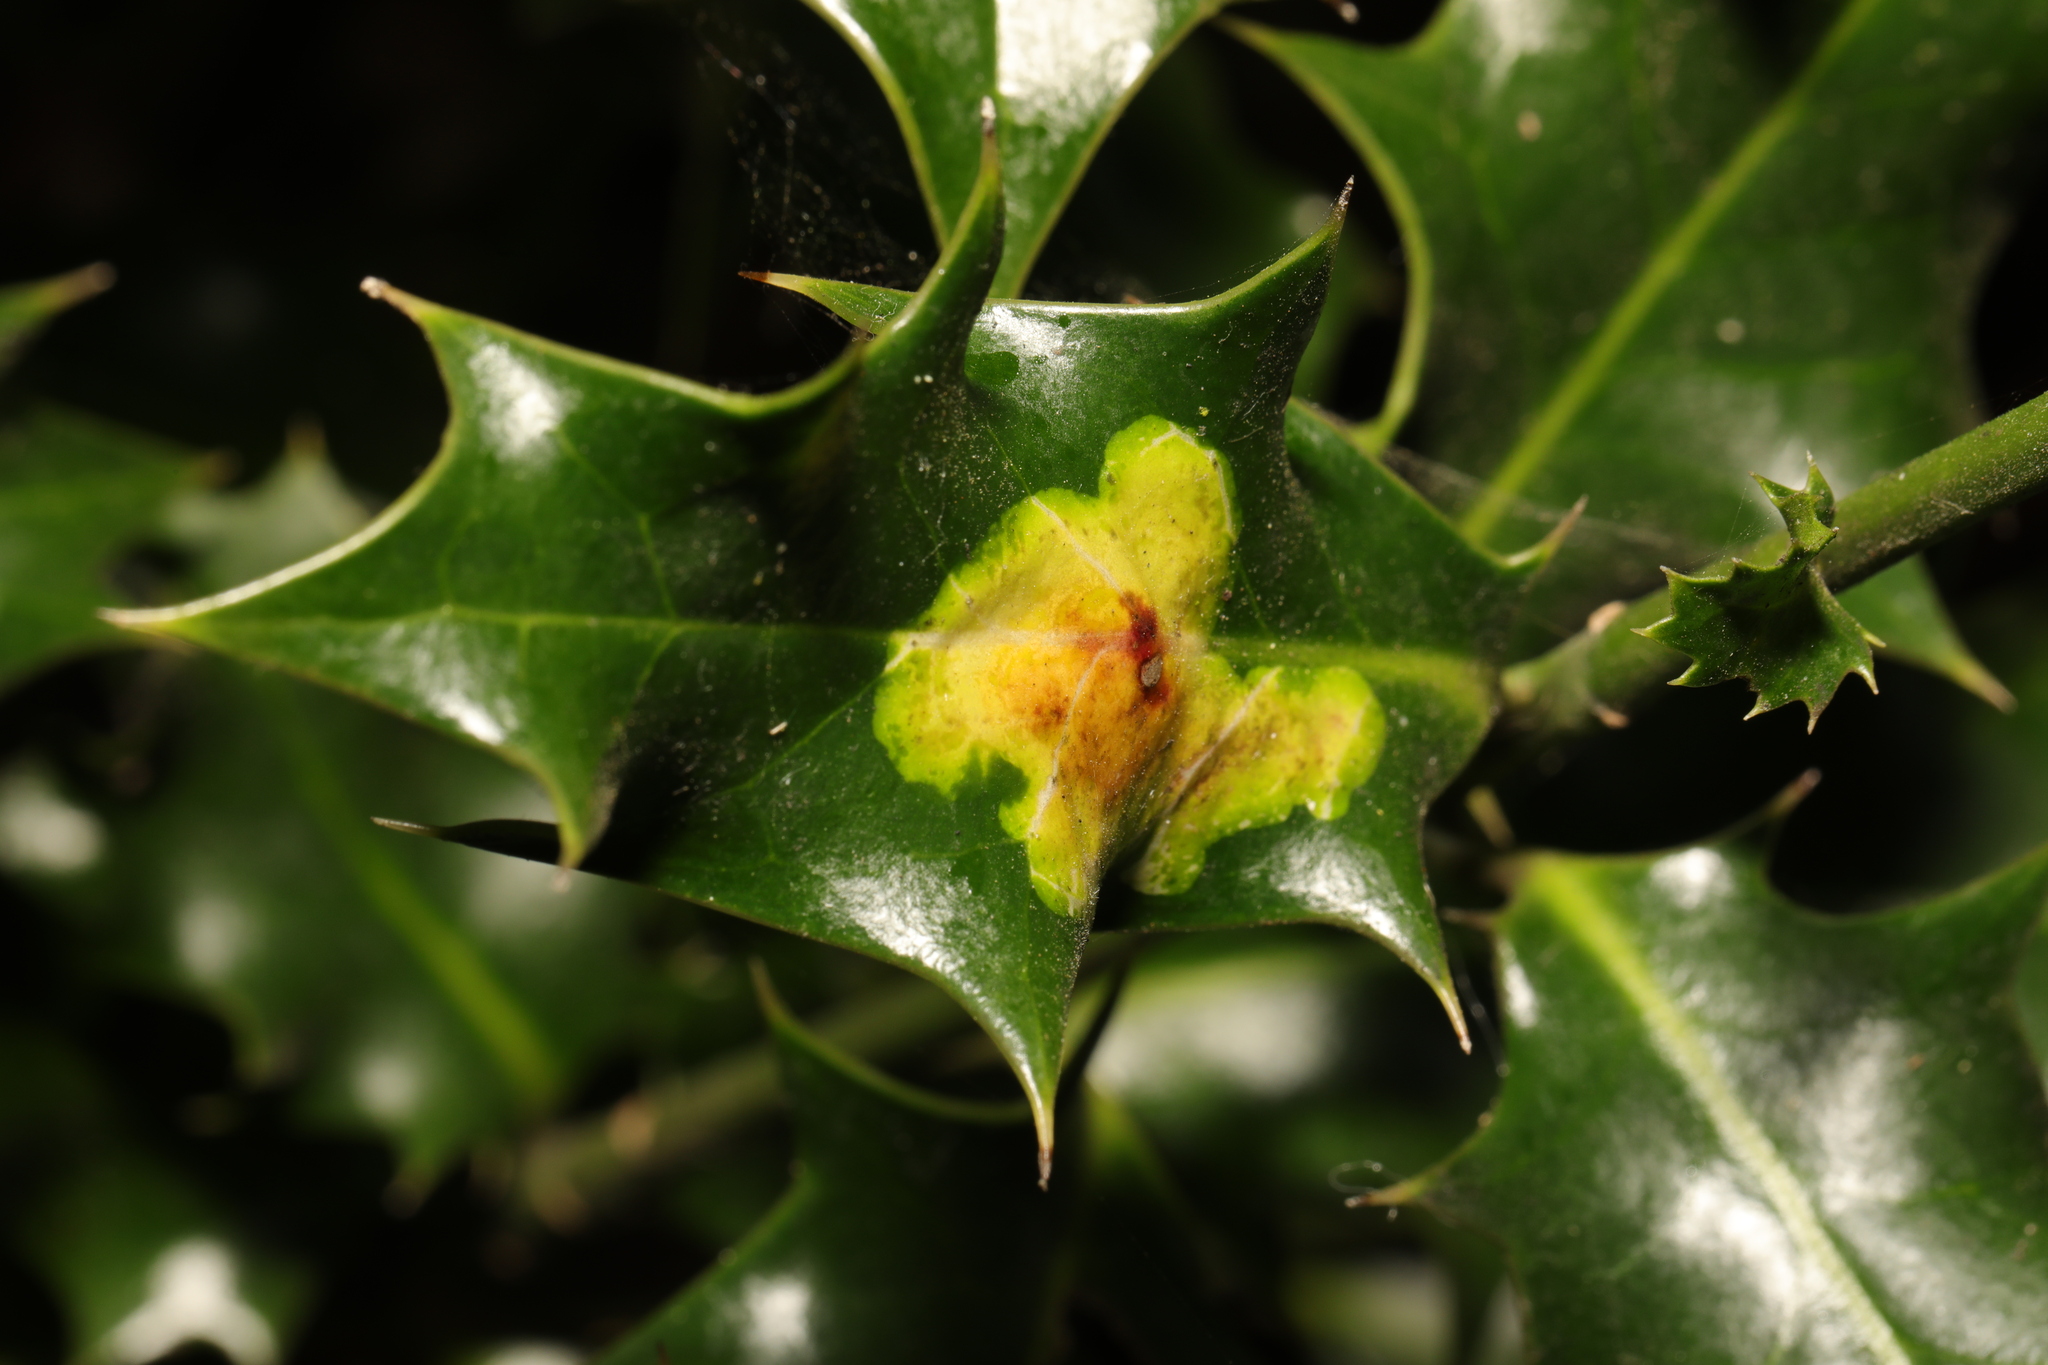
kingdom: Animalia
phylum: Arthropoda
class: Insecta
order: Diptera
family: Agromyzidae
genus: Phytomyza
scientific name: Phytomyza ilicis
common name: Holly leafminer
